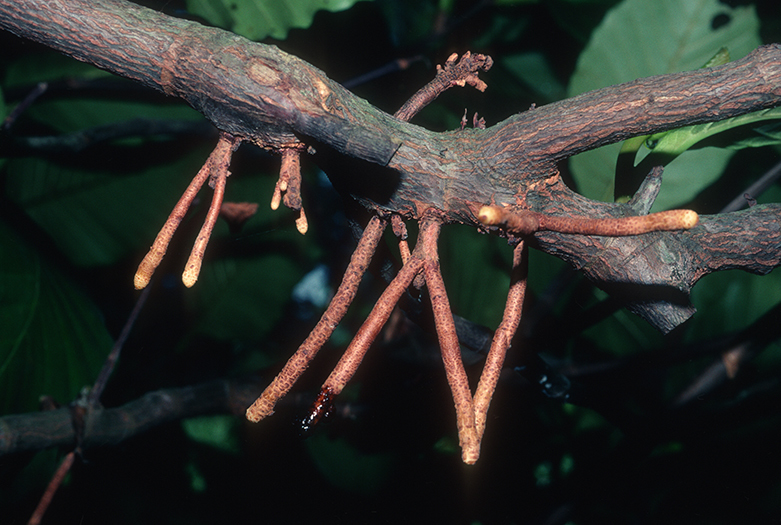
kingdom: Plantae
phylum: Tracheophyta
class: Magnoliopsida
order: Dilleniales
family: Dilleniaceae
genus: Dillenia
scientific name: Dillenia suffruticosa
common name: Shrubby dillenia
